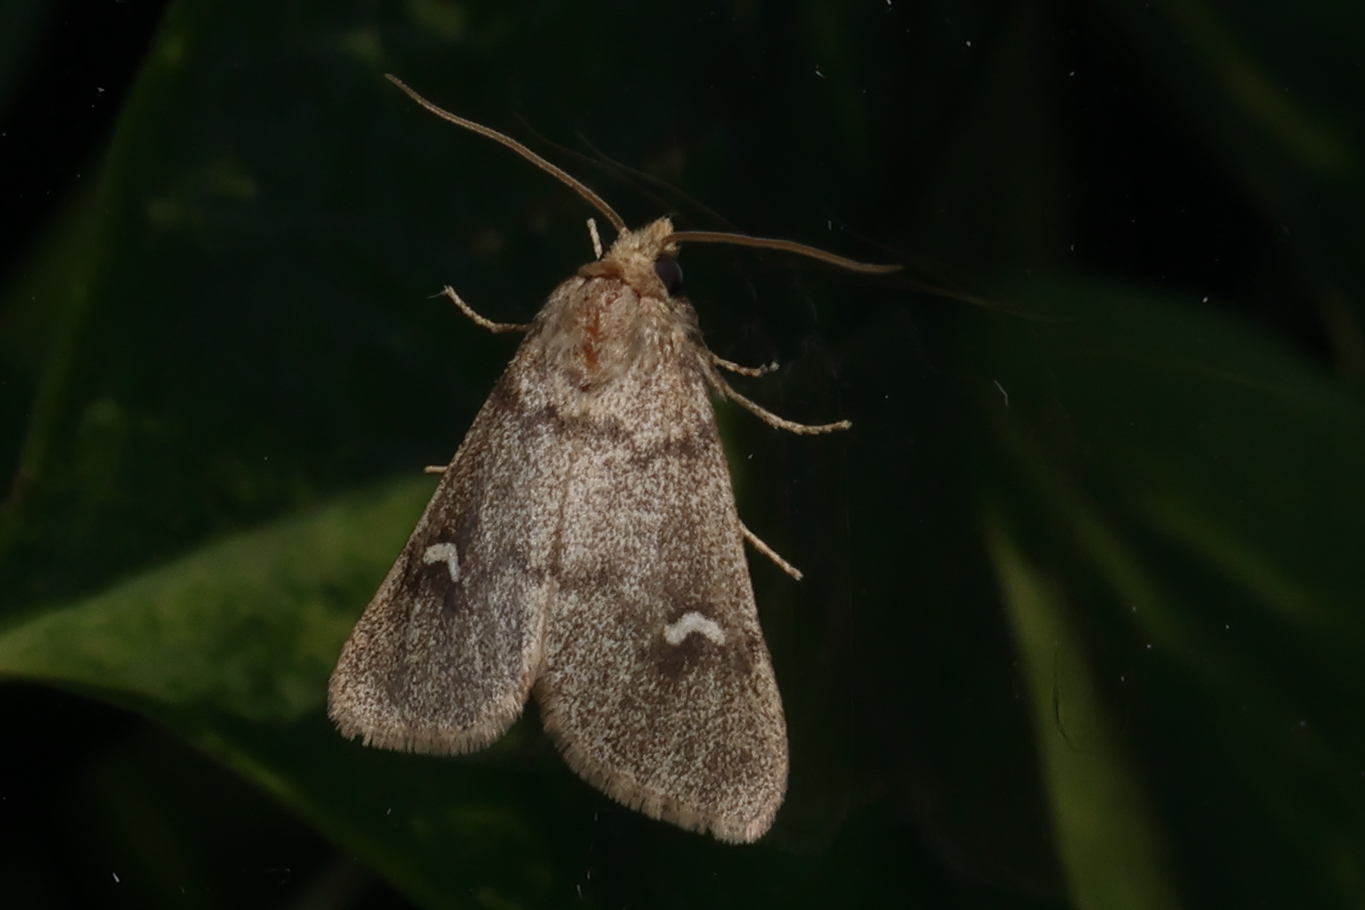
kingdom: Animalia
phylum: Arthropoda
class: Insecta
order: Lepidoptera
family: Noctuidae
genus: Narthecophora
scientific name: Narthecophora pulverea
